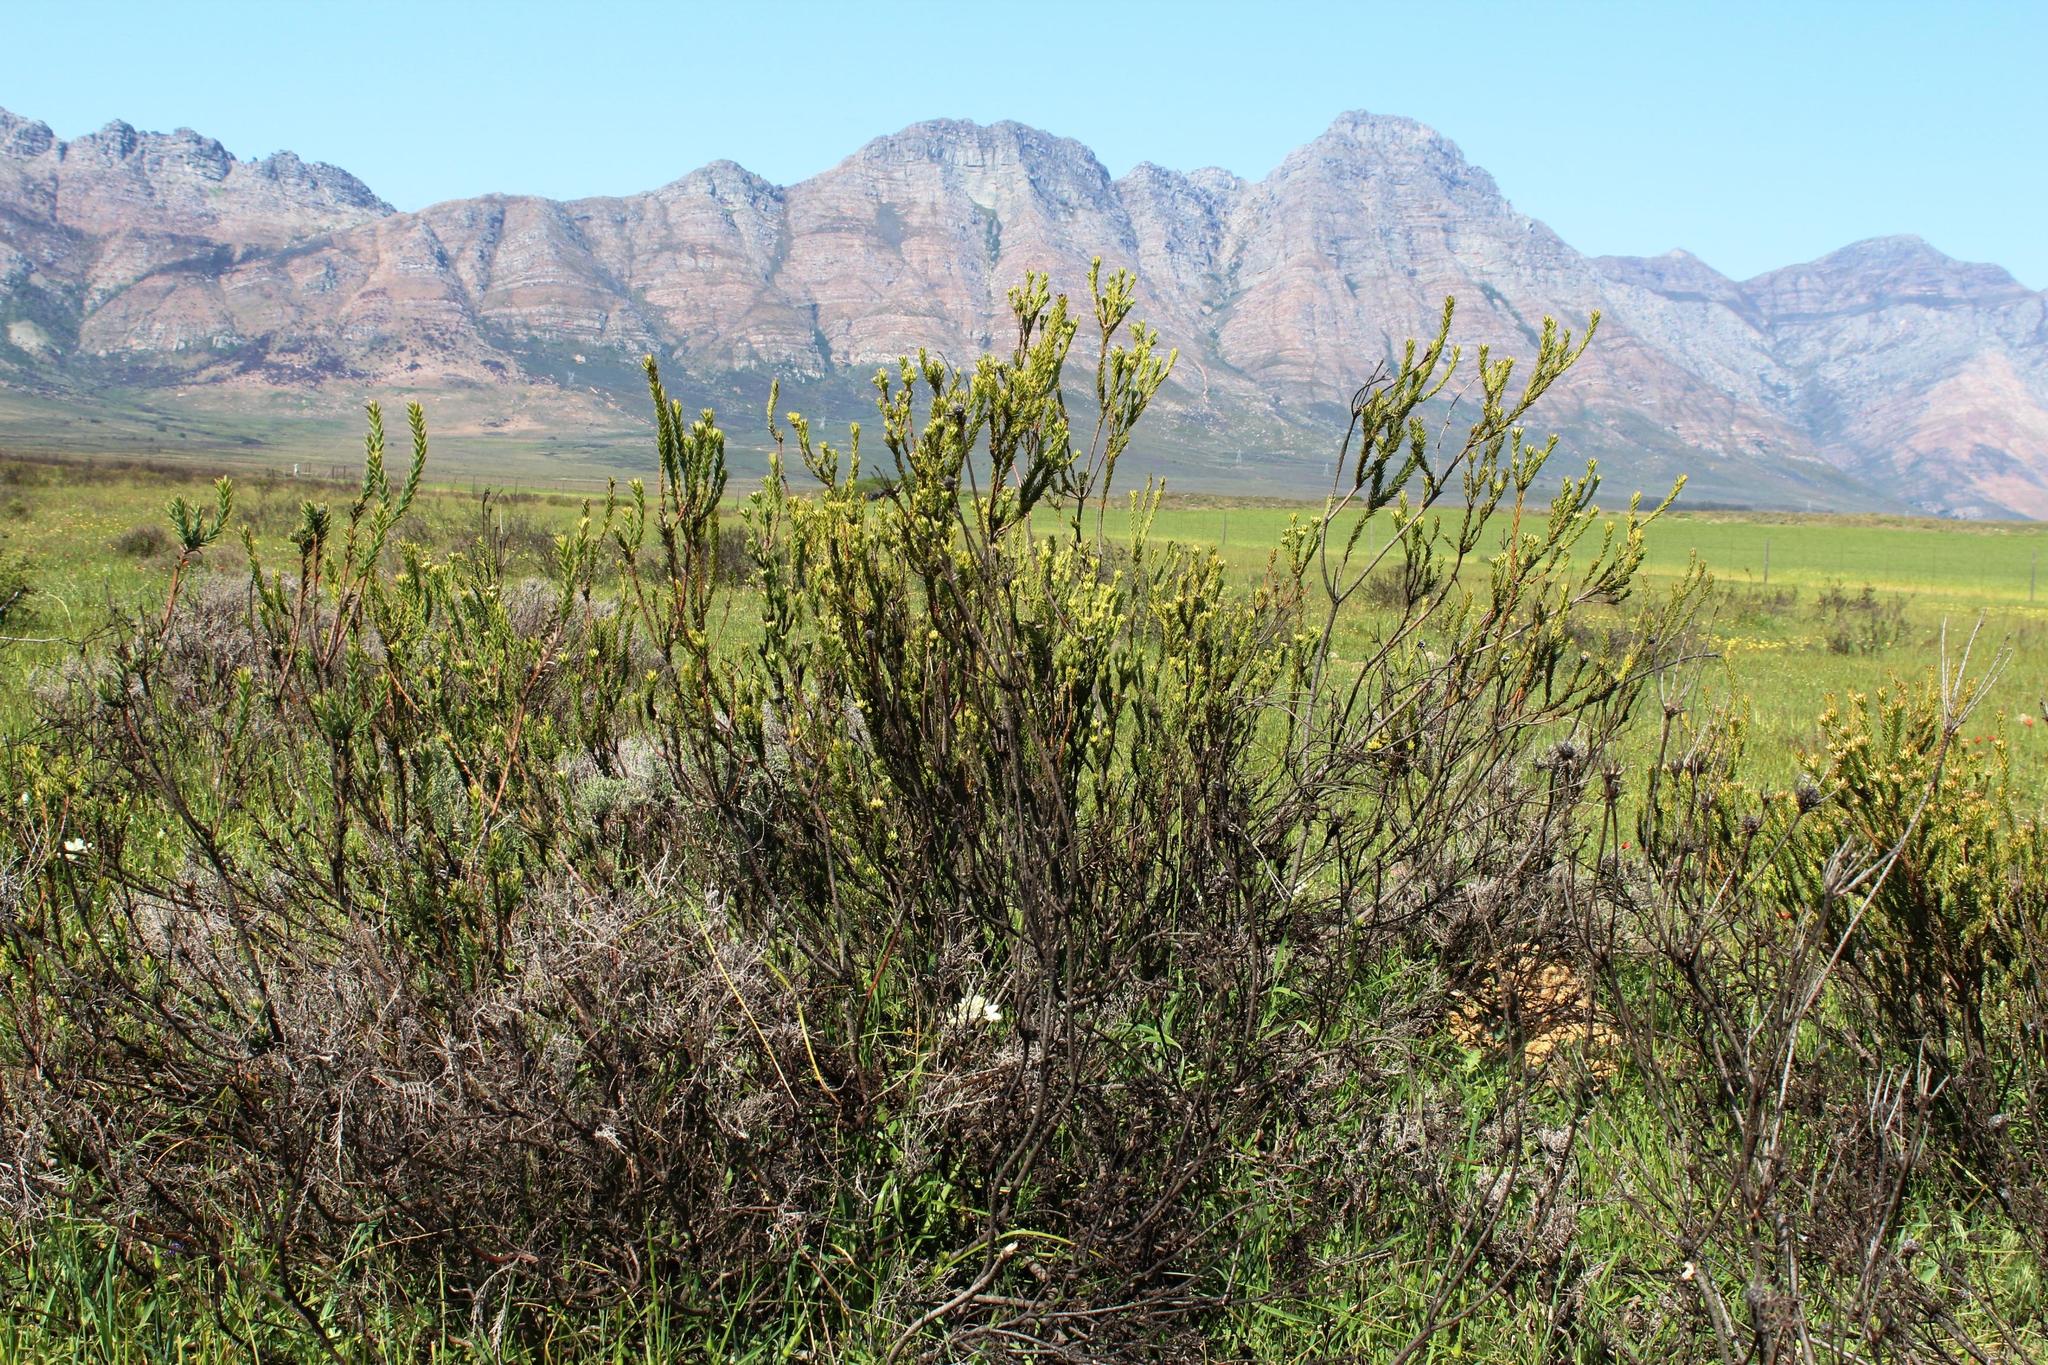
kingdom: Plantae
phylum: Tracheophyta
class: Magnoliopsida
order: Proteales
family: Proteaceae
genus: Leucadendron
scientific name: Leucadendron stellare
